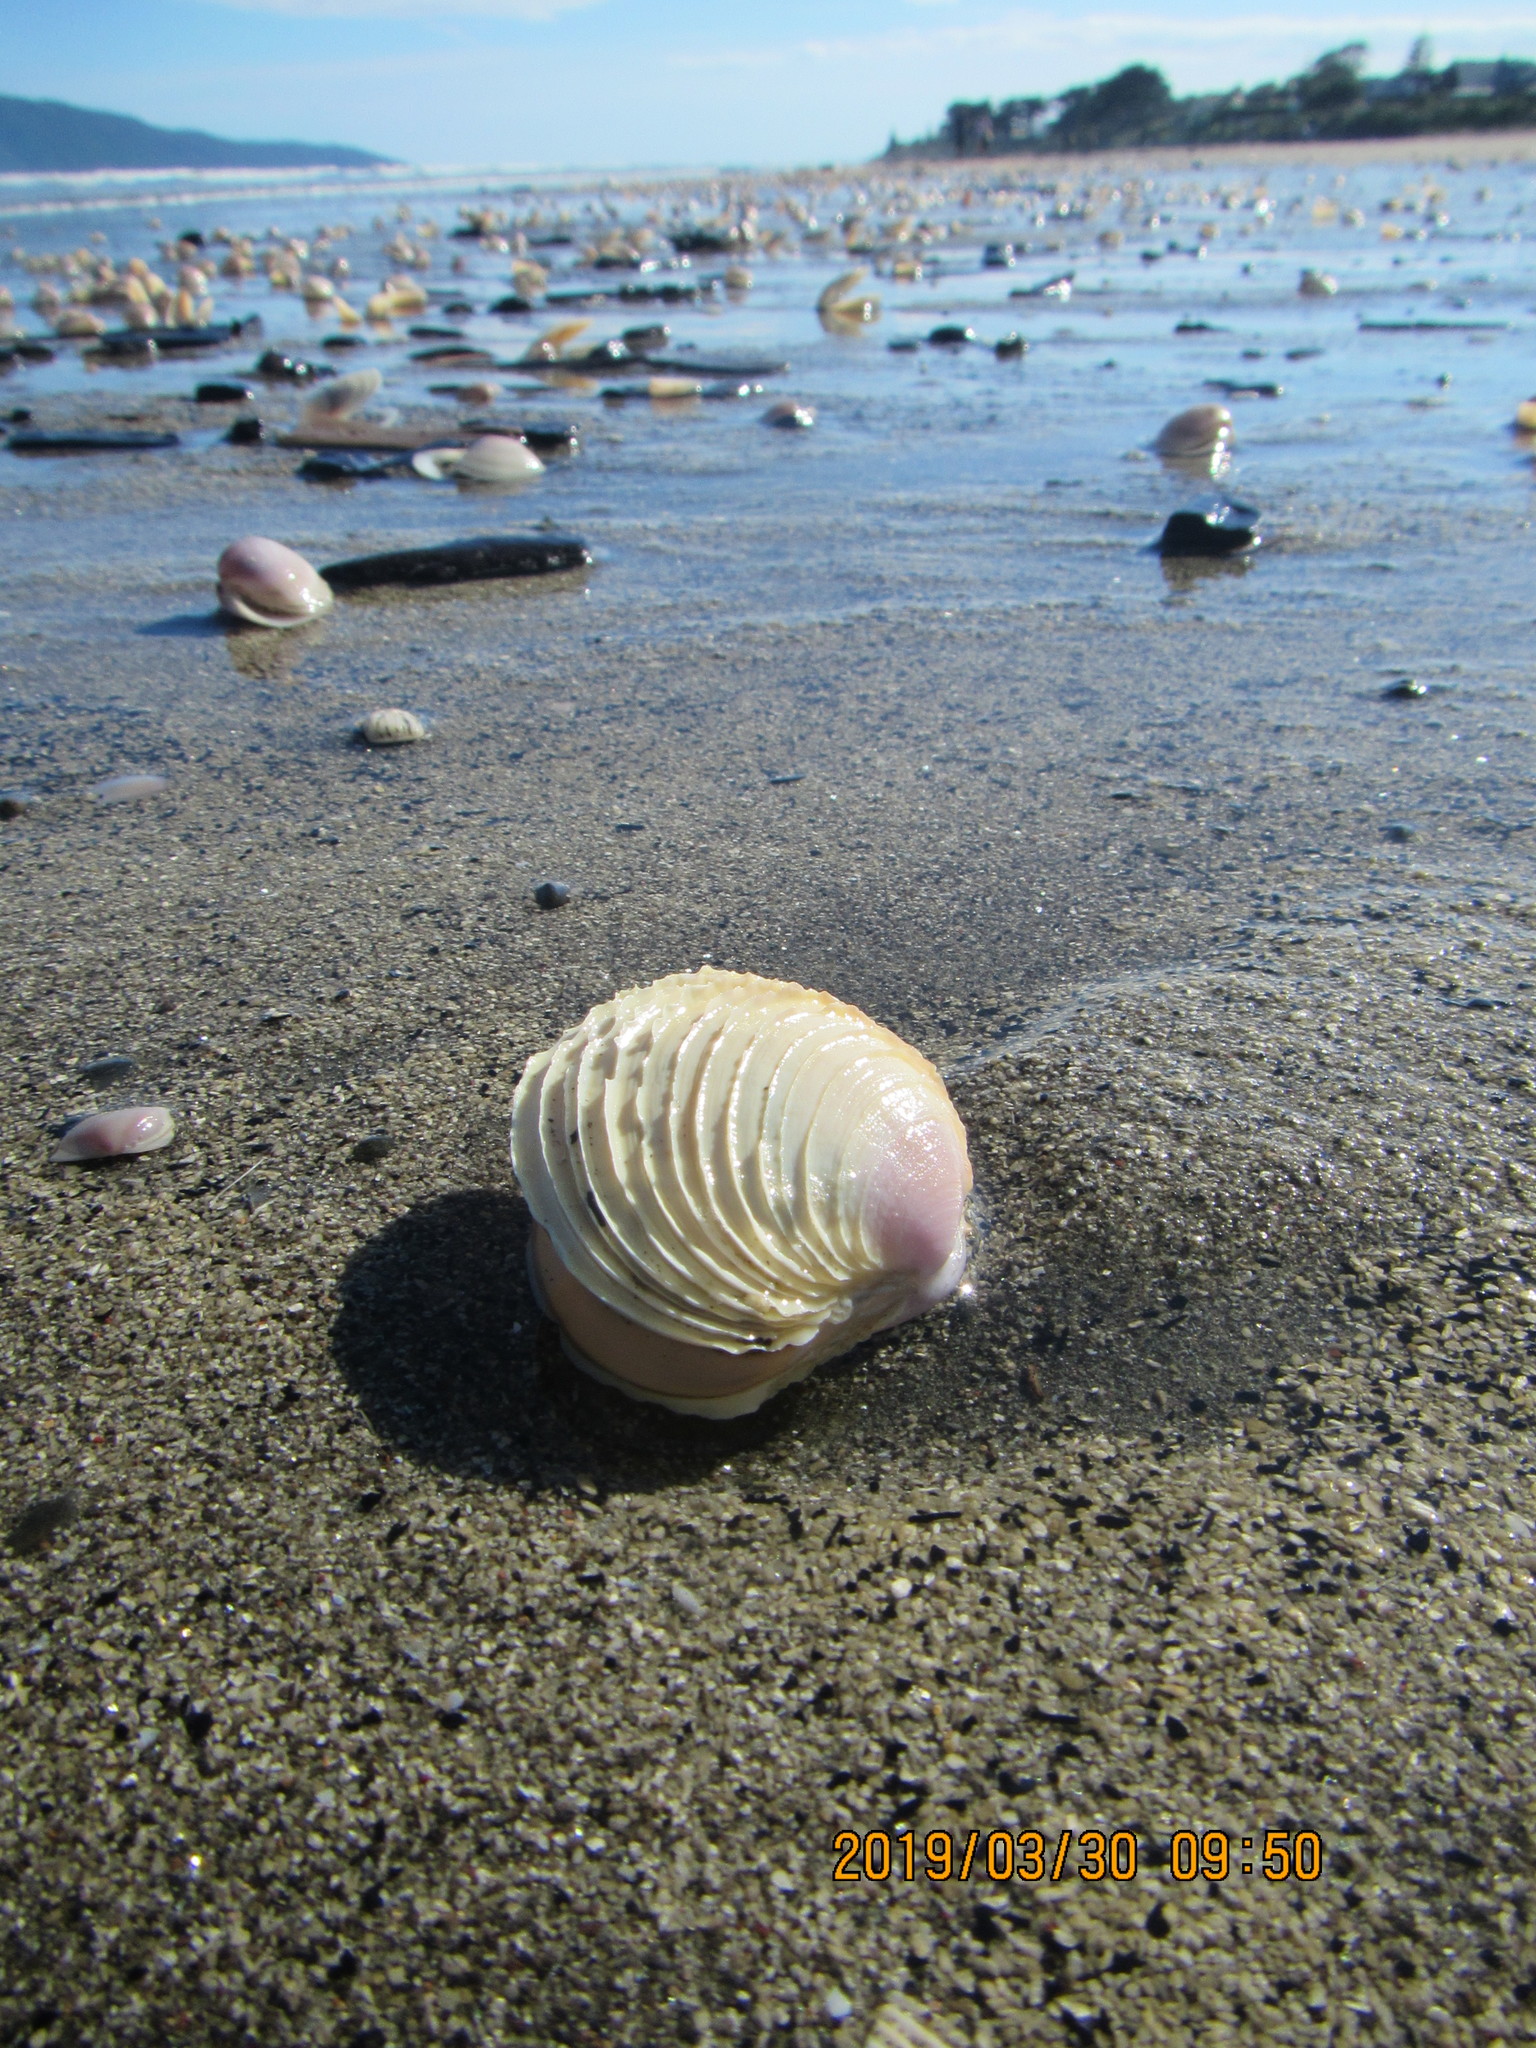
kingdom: Animalia
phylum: Mollusca
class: Bivalvia
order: Venerida
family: Veneridae
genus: Bassina
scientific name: Bassina yatei
